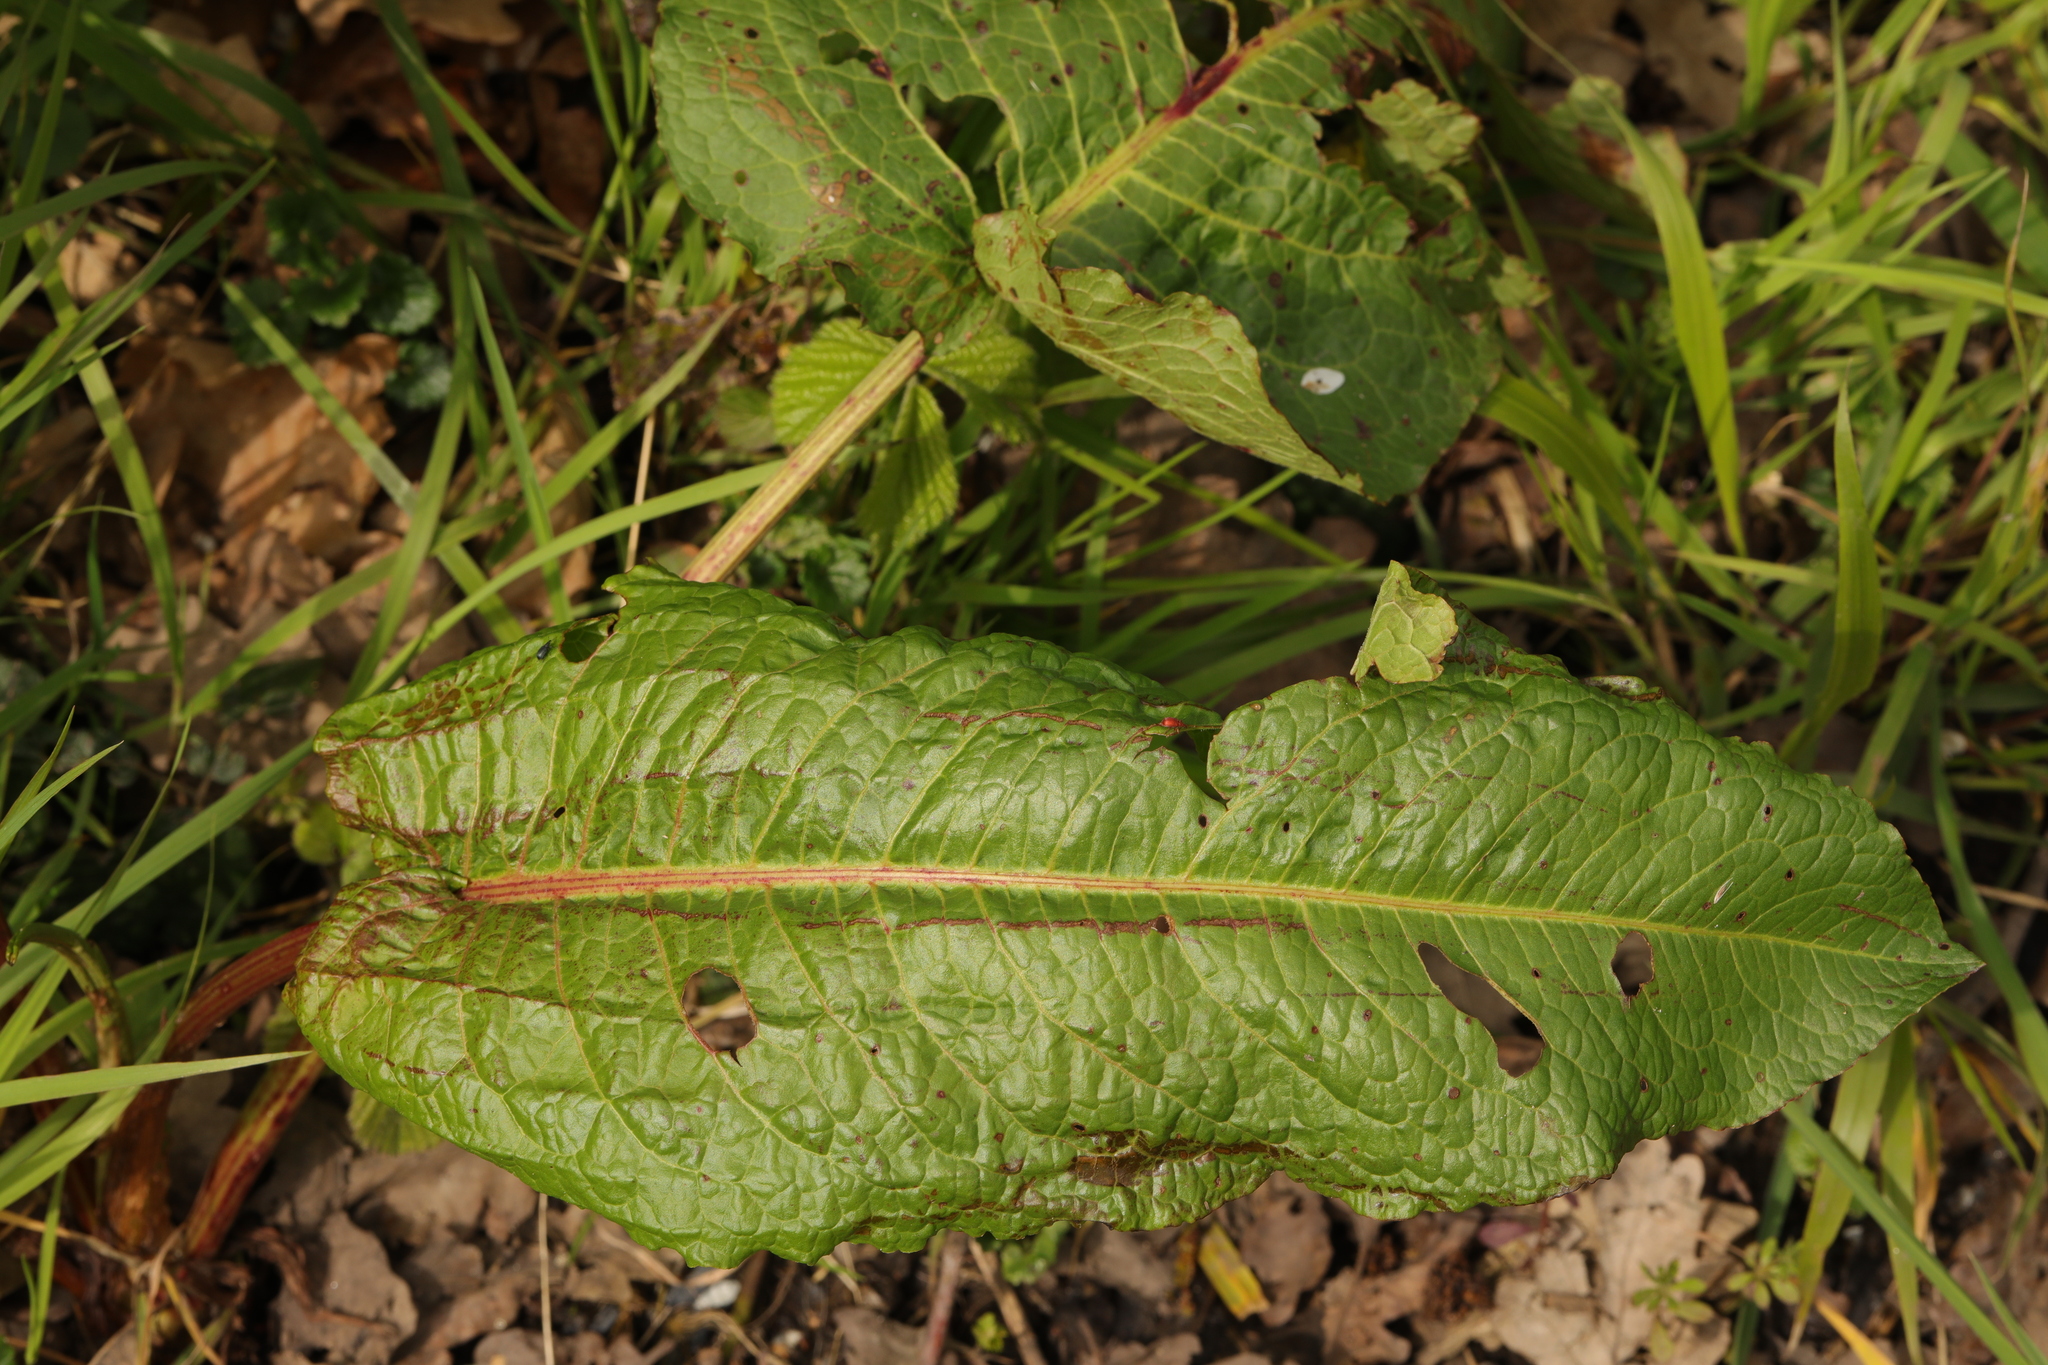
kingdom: Plantae
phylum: Tracheophyta
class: Magnoliopsida
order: Caryophyllales
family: Polygonaceae
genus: Rumex
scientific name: Rumex obtusifolius
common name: Bitter dock
